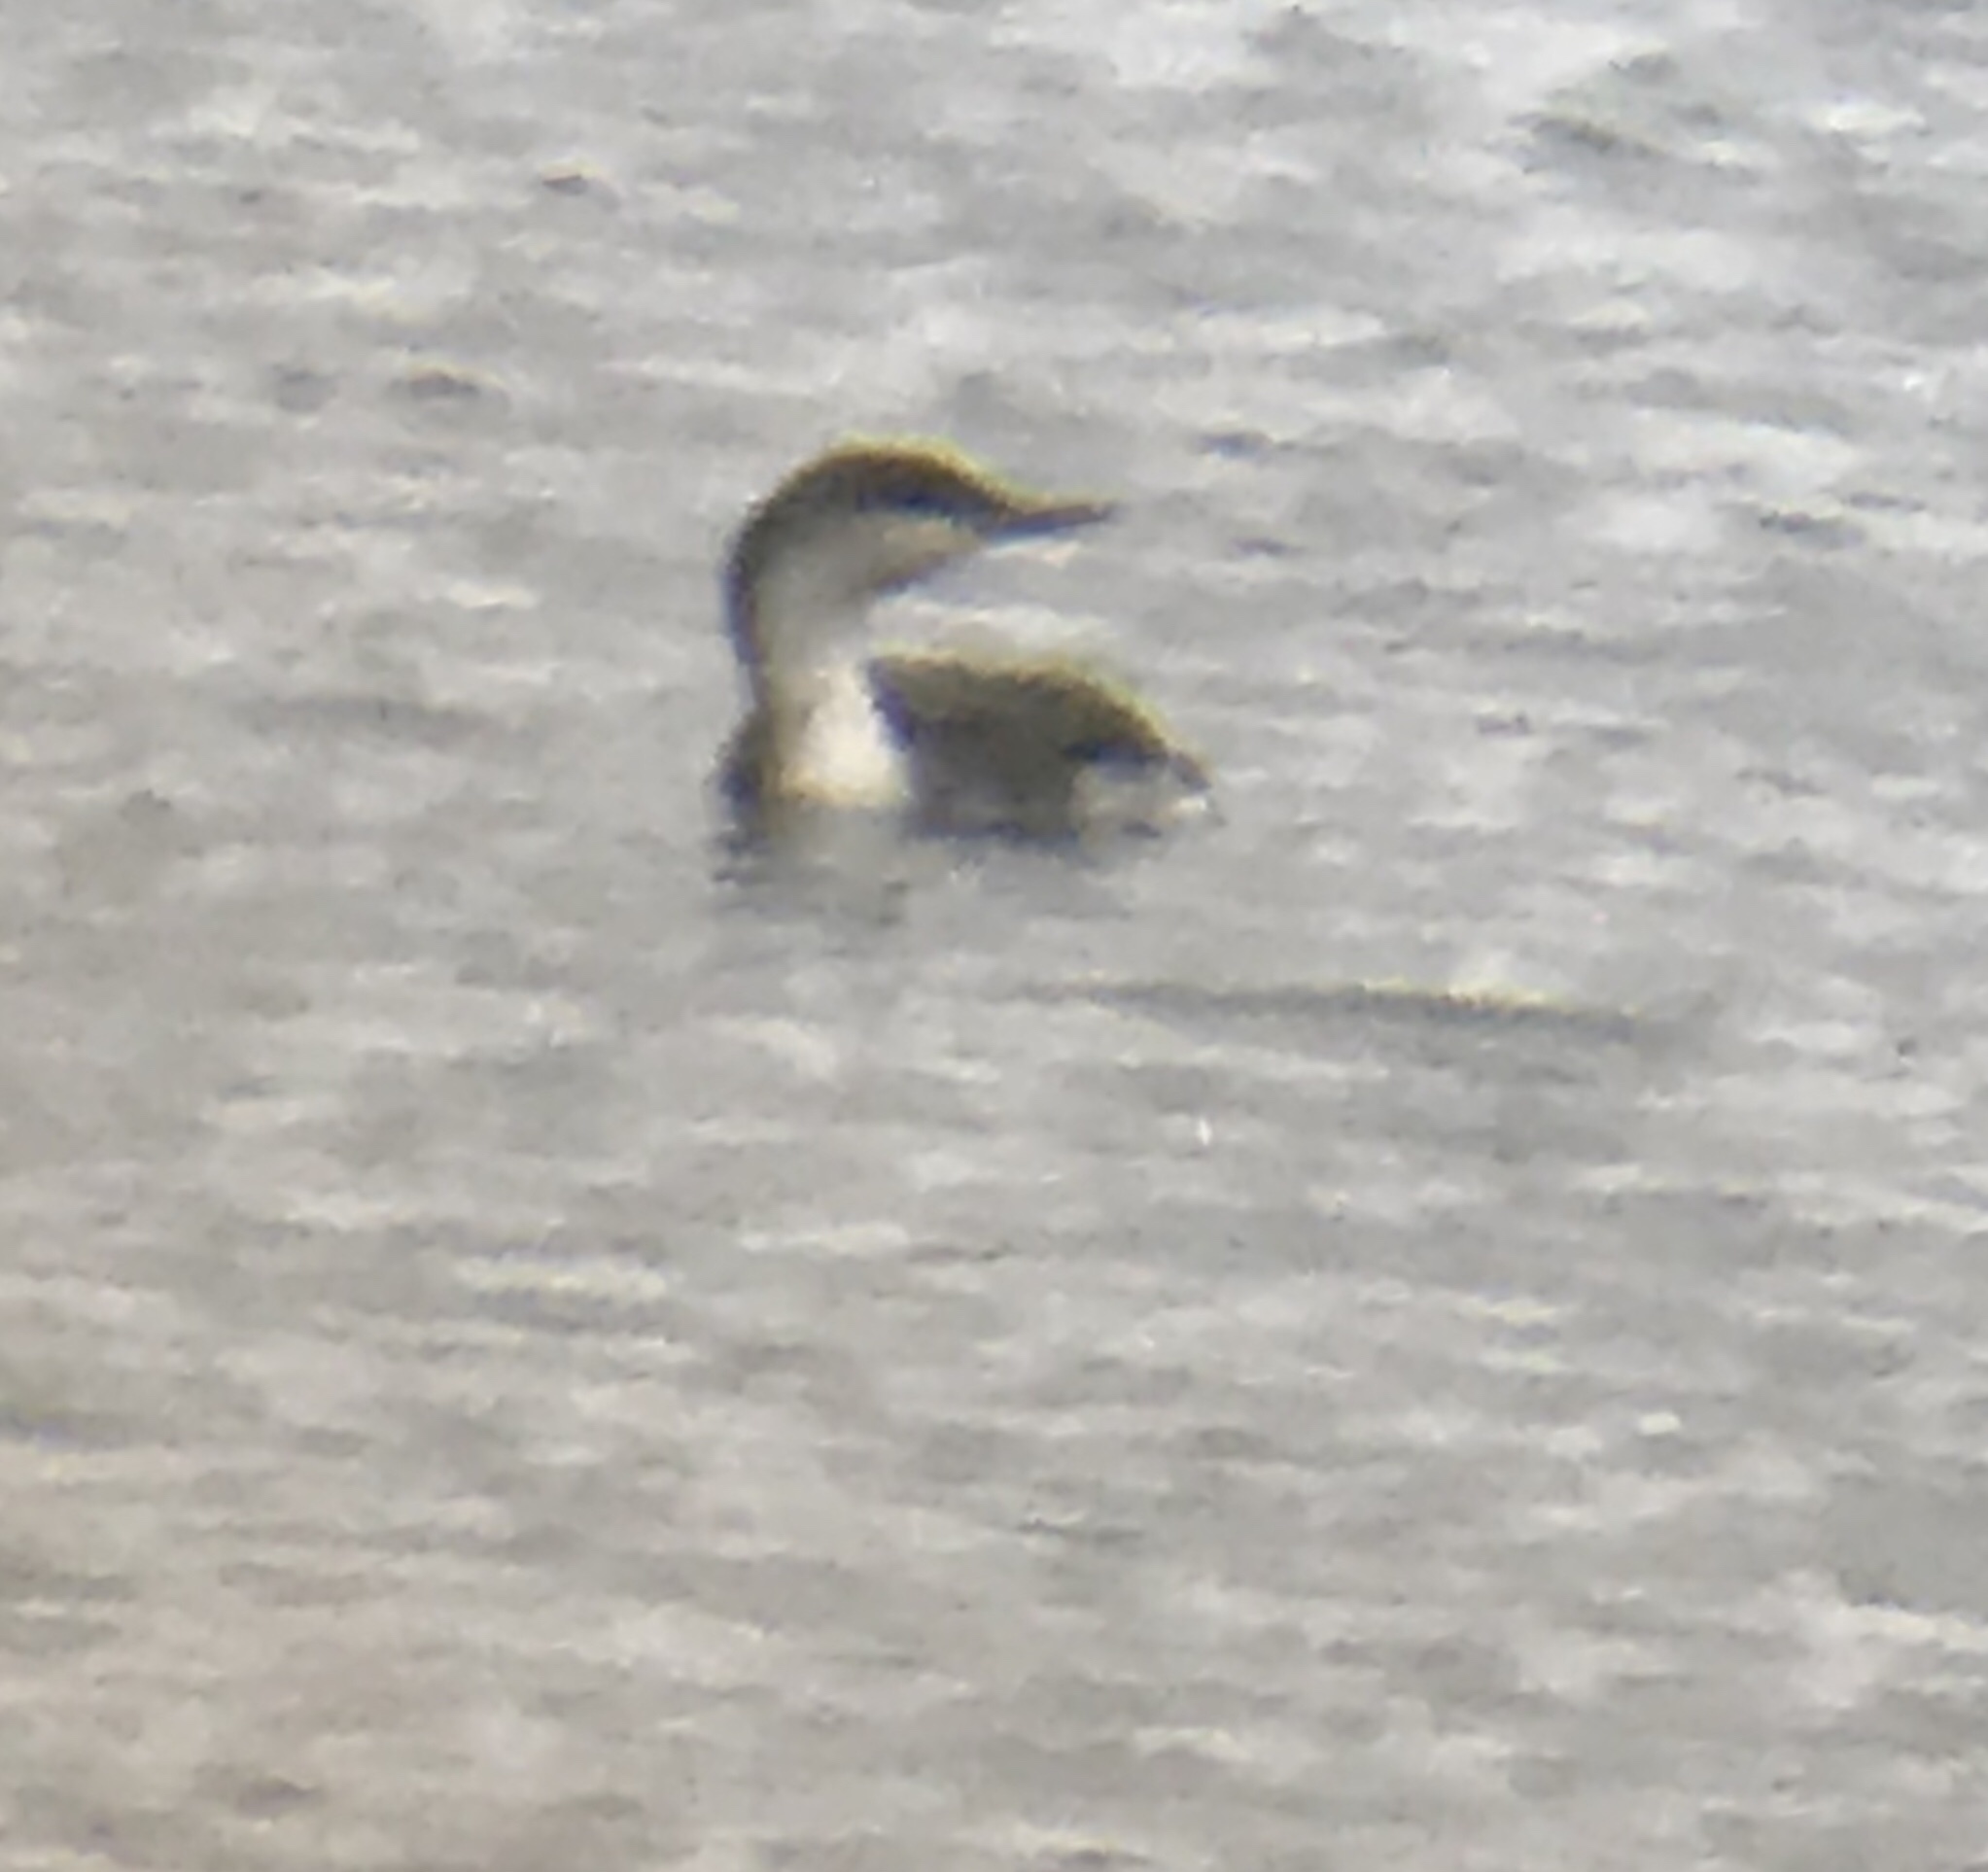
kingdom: Animalia
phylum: Chordata
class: Aves
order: Gaviiformes
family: Gaviidae
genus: Gavia
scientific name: Gavia stellata
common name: Red-throated loon
